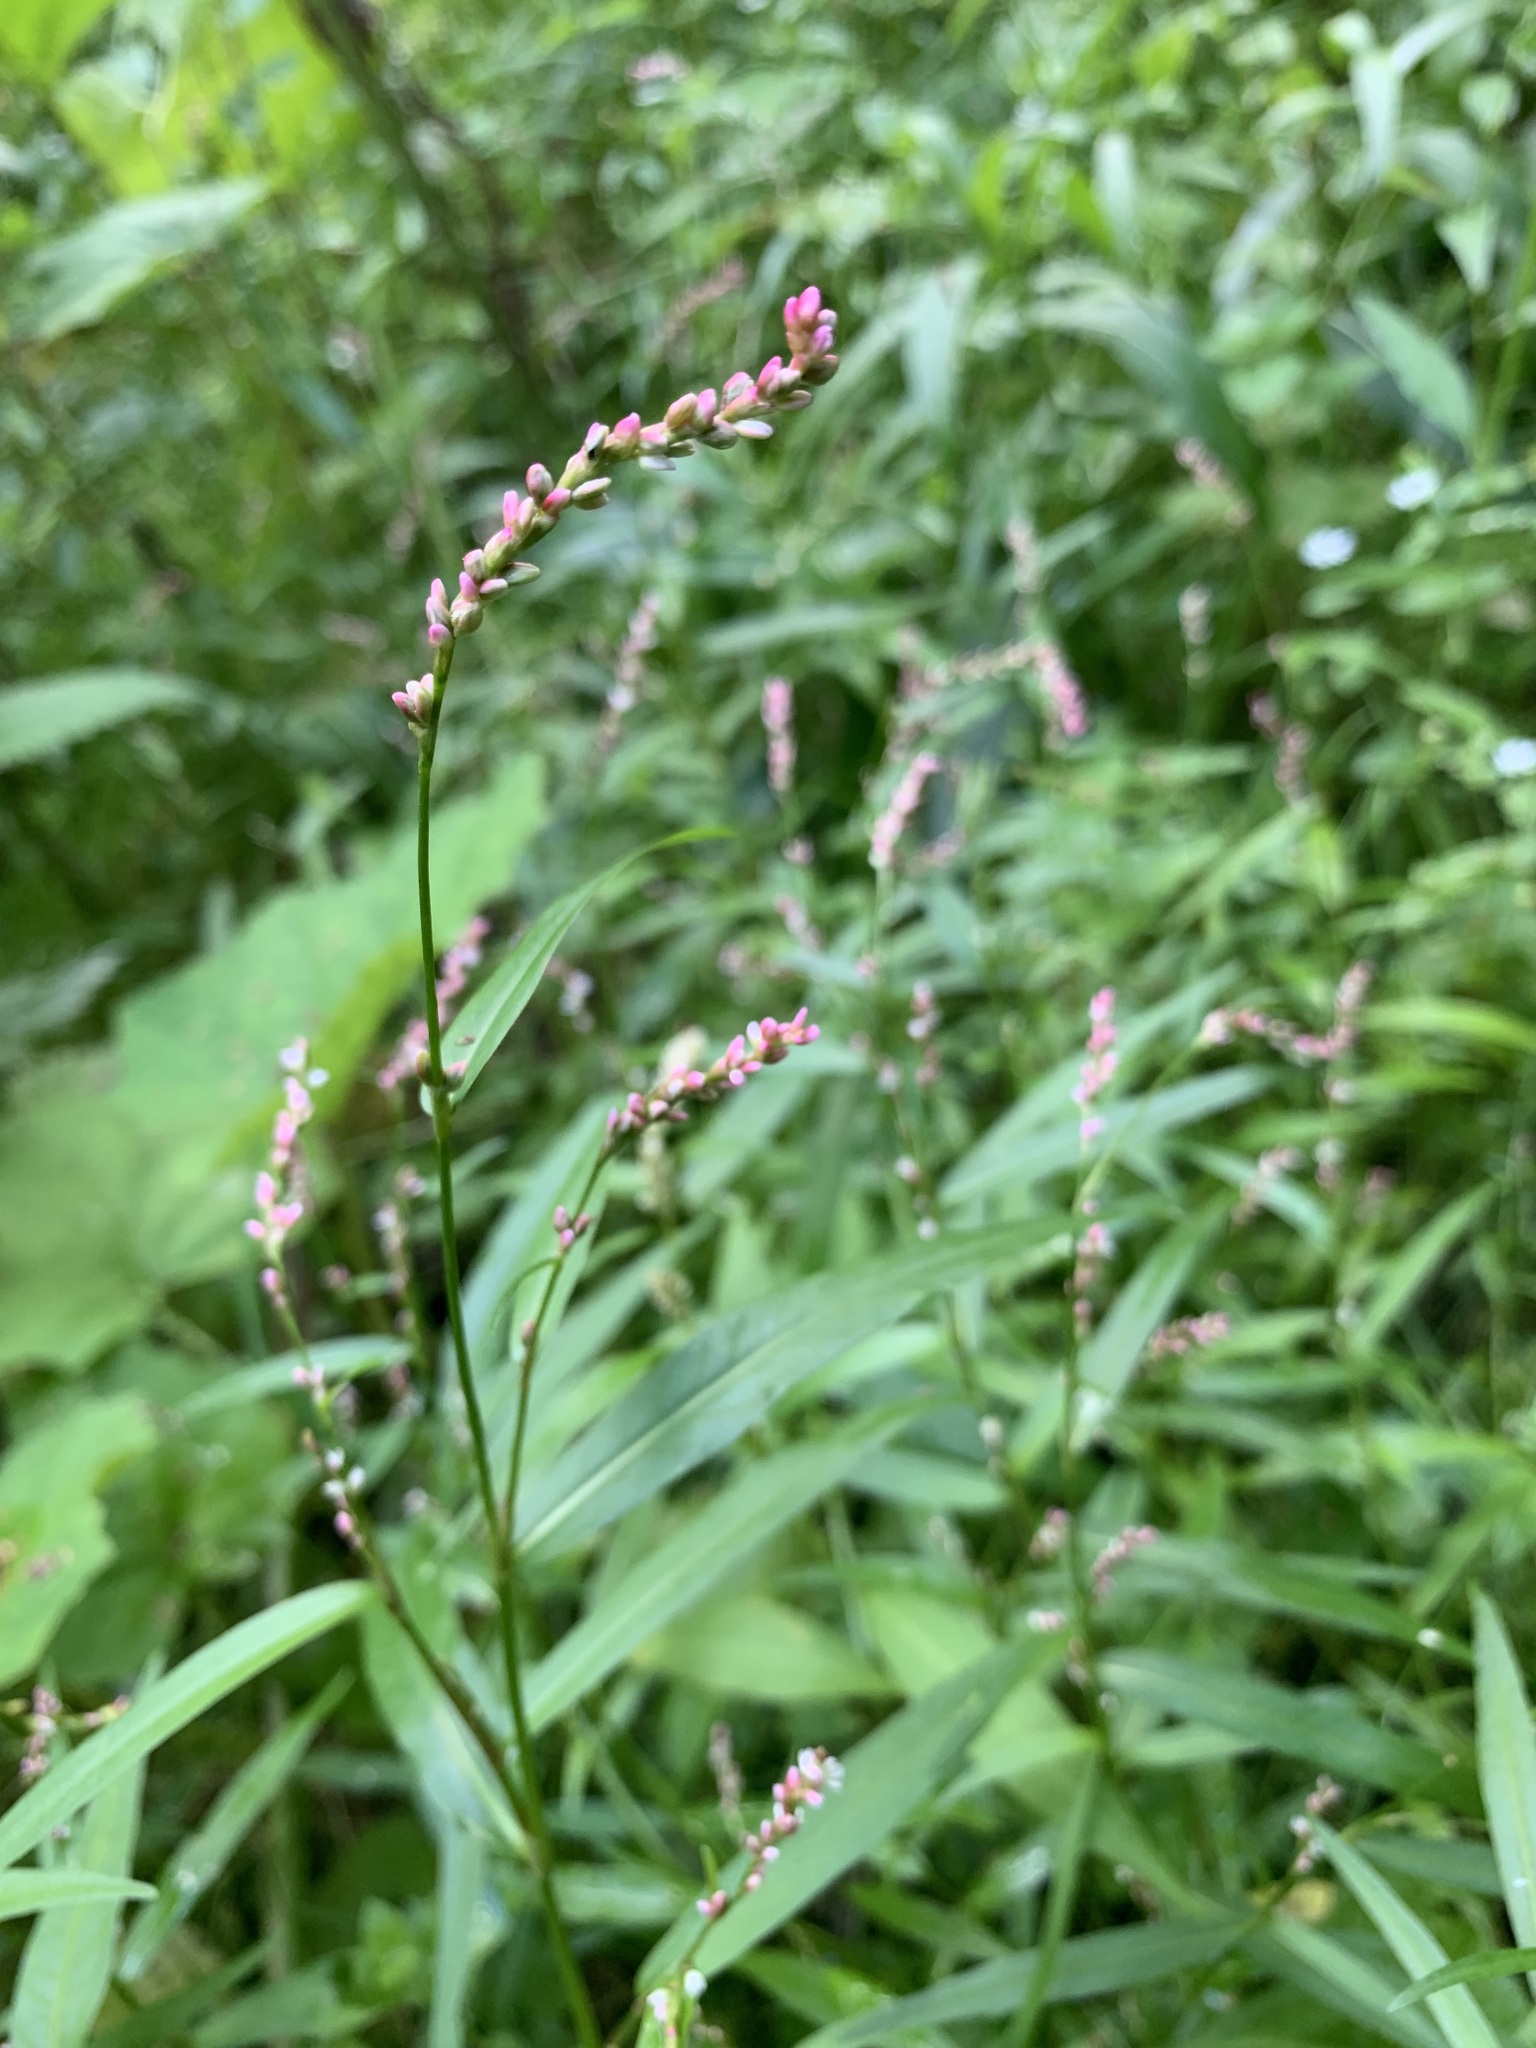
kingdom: Plantae
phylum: Tracheophyta
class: Magnoliopsida
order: Caryophyllales
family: Polygonaceae
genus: Persicaria
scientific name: Persicaria minor
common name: Small water-pepper
